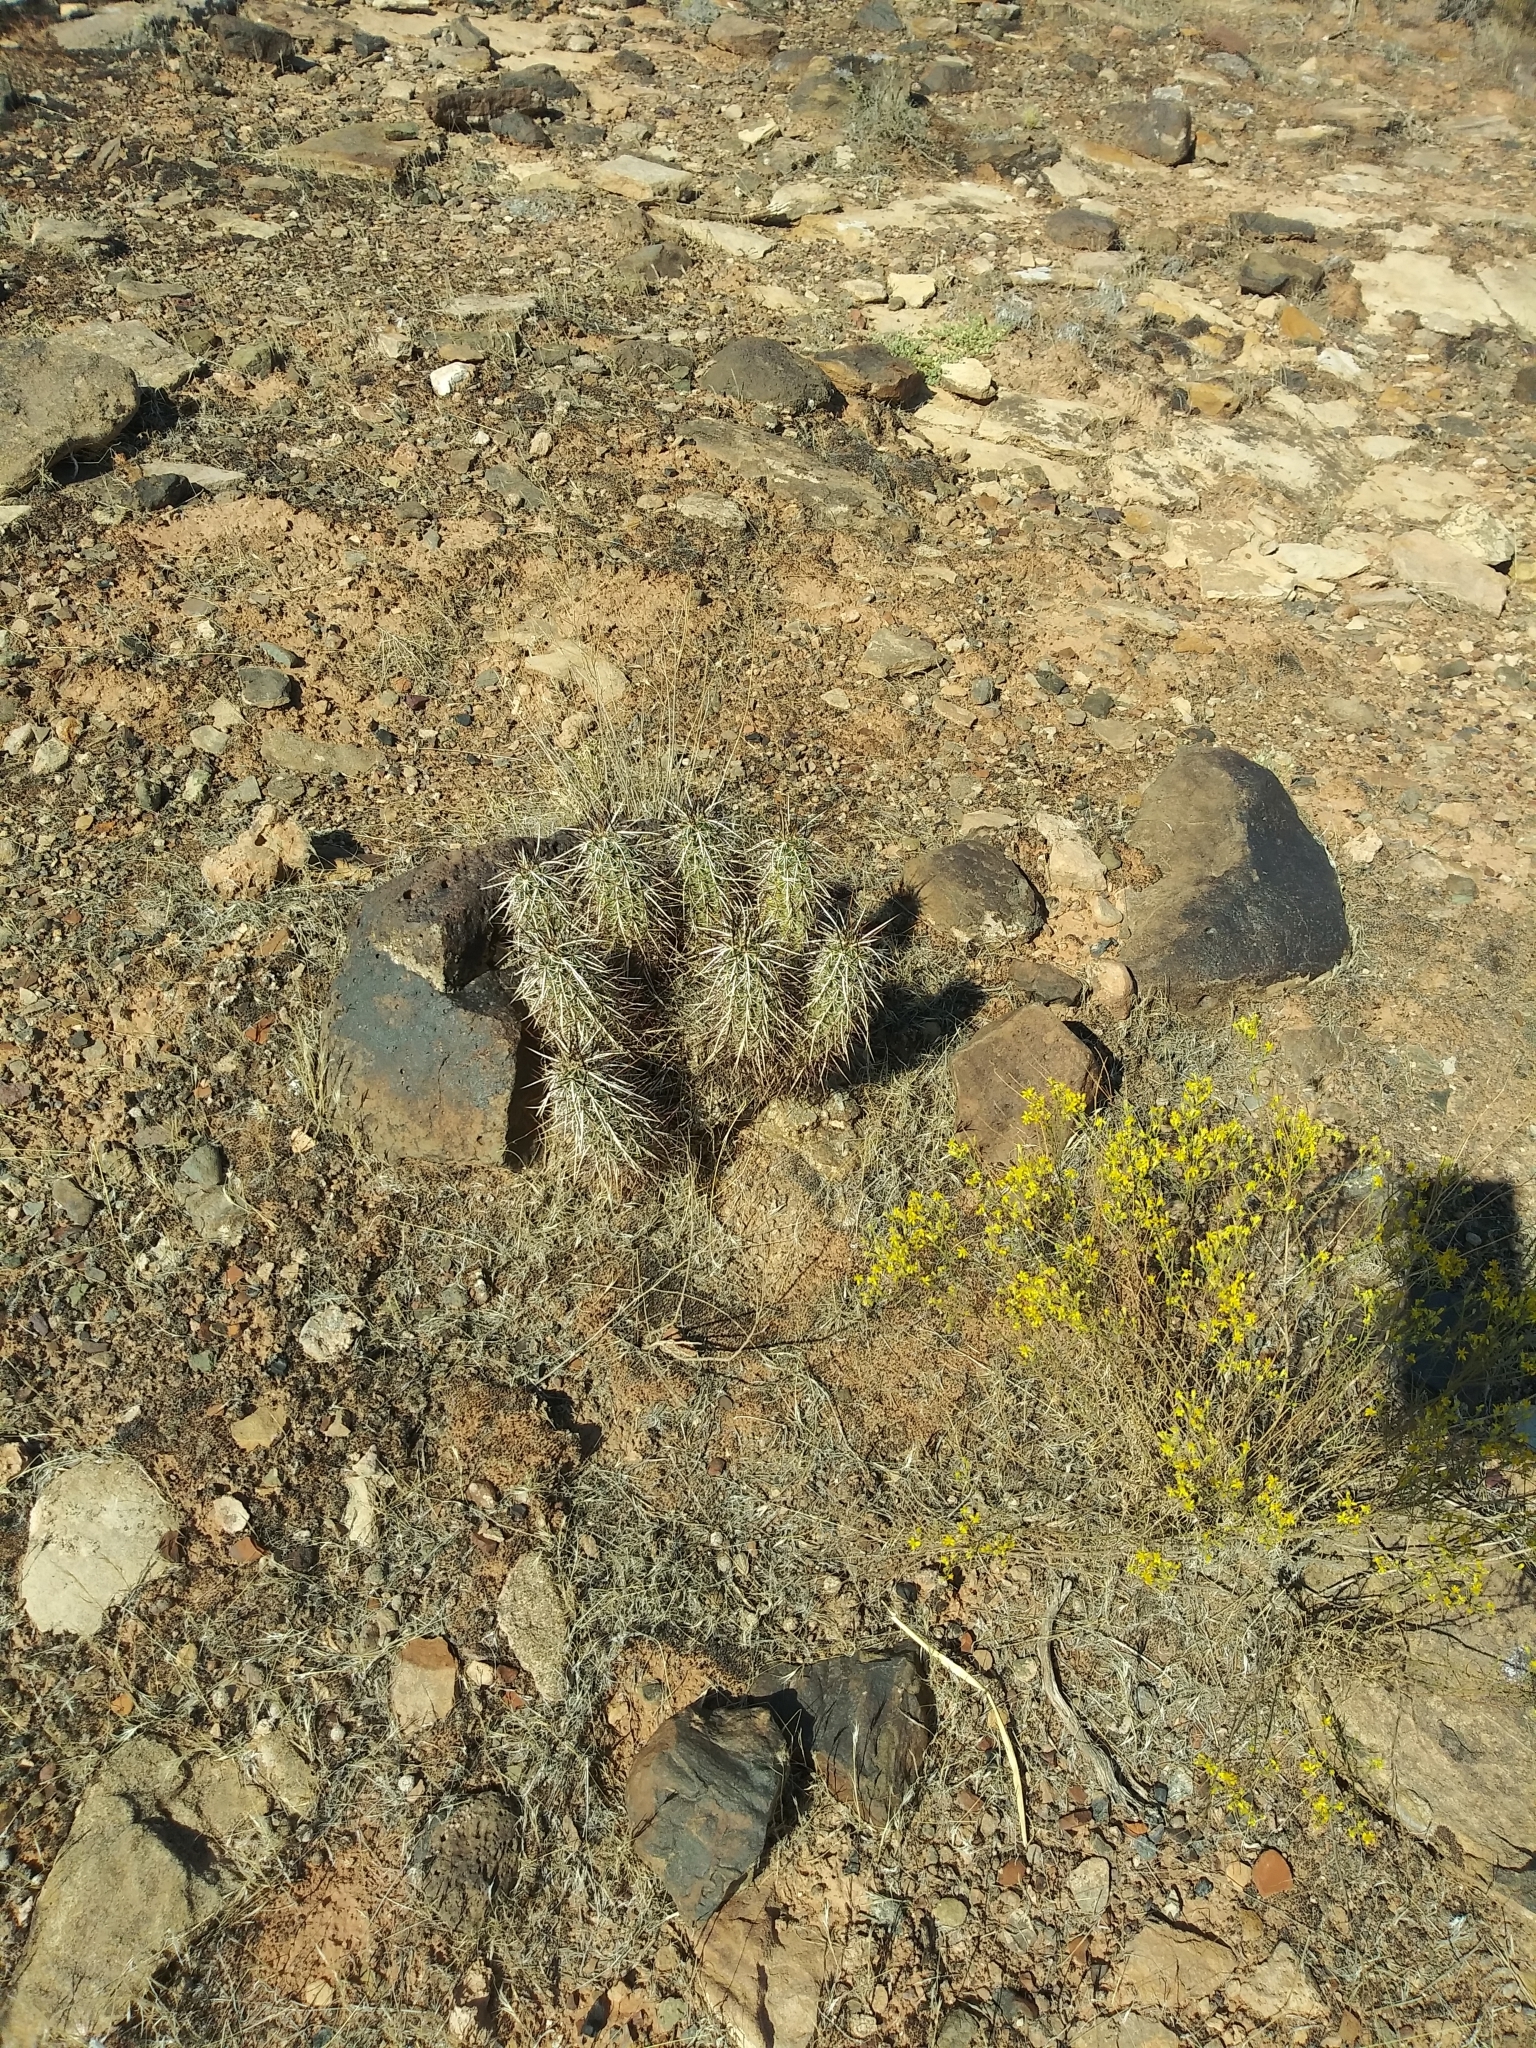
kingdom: Plantae
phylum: Tracheophyta
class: Magnoliopsida
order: Caryophyllales
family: Cactaceae
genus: Echinocereus
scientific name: Echinocereus relictus
